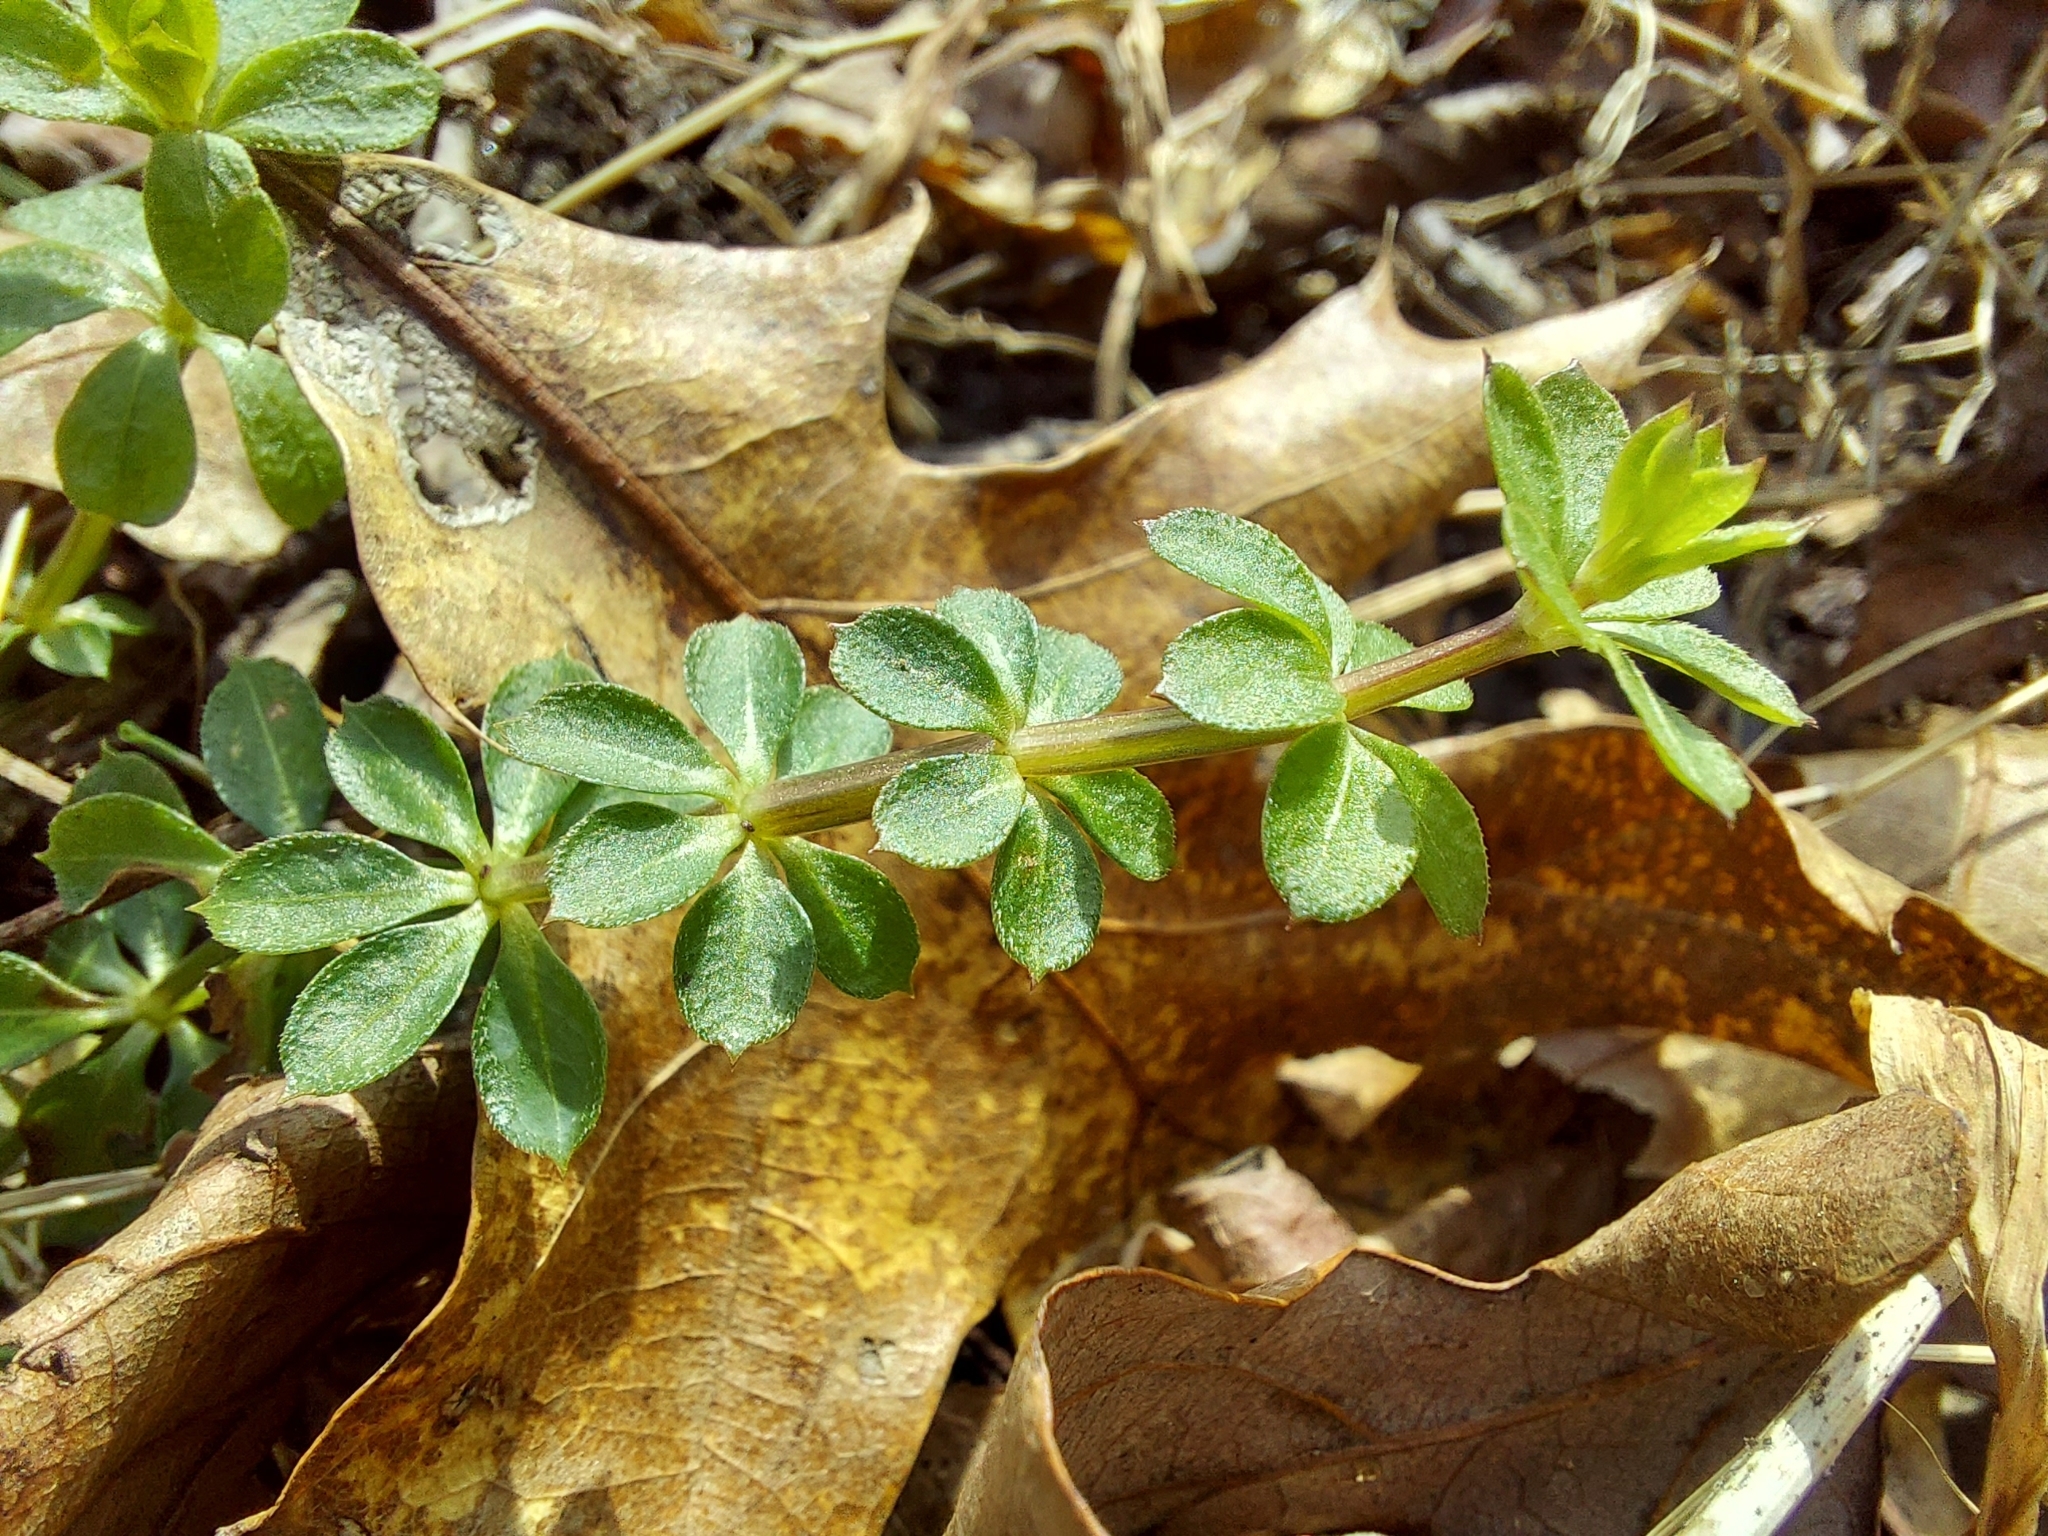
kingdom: Plantae
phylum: Tracheophyta
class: Magnoliopsida
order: Gentianales
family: Rubiaceae
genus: Galium
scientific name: Galium triflorum
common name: Fragrant bedstraw
